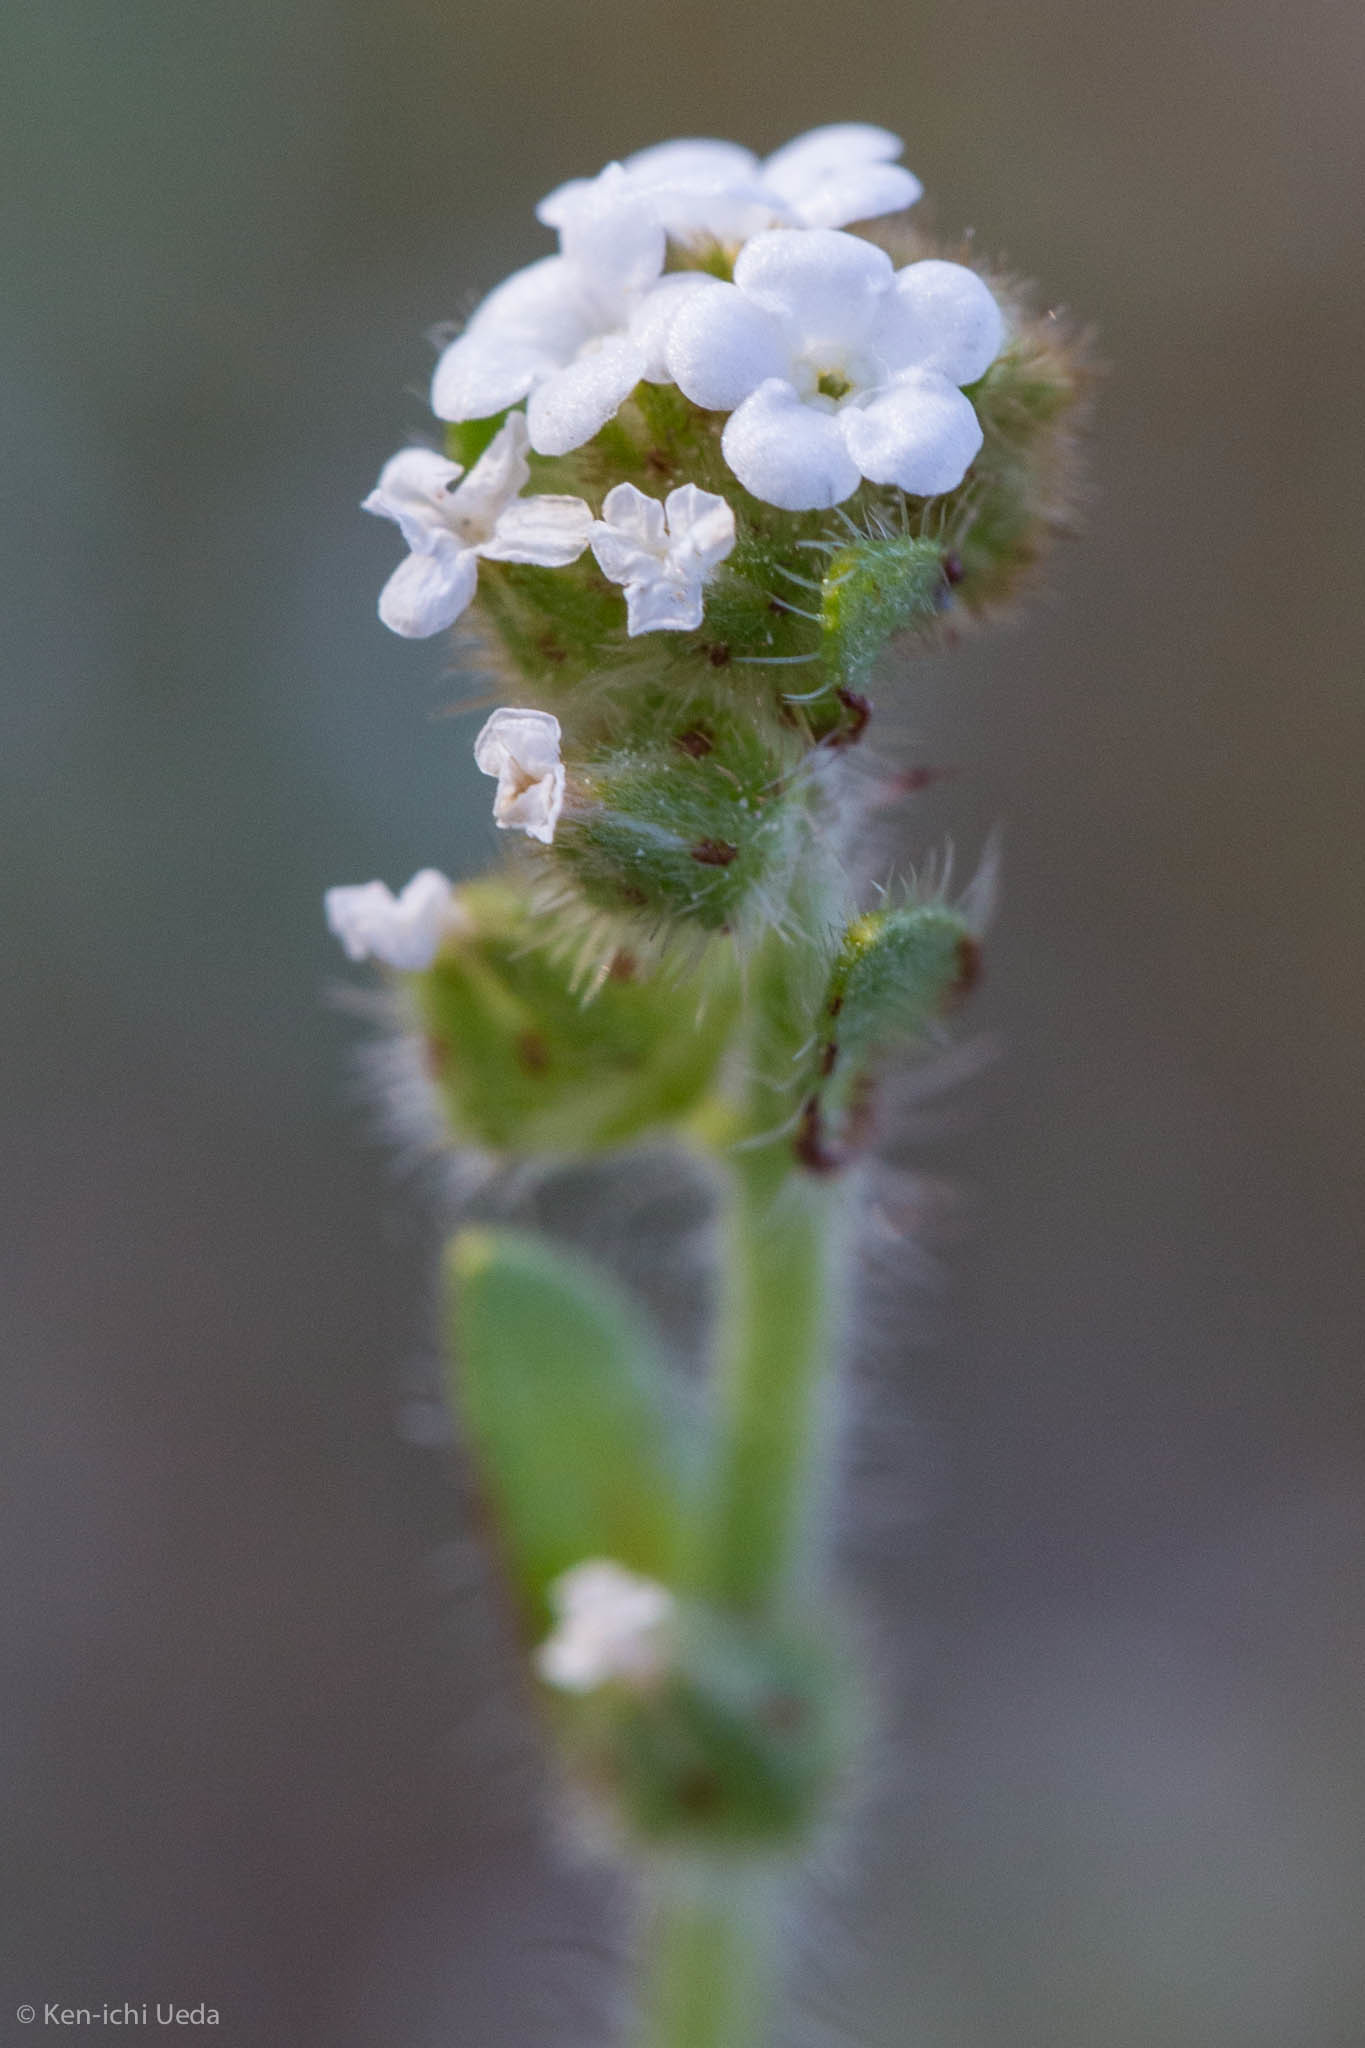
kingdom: Plantae
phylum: Tracheophyta
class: Magnoliopsida
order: Boraginales
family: Boraginaceae
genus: Plagiobothrys
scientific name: Plagiobothrys arizonicus
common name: Arizona popcorn-flower
